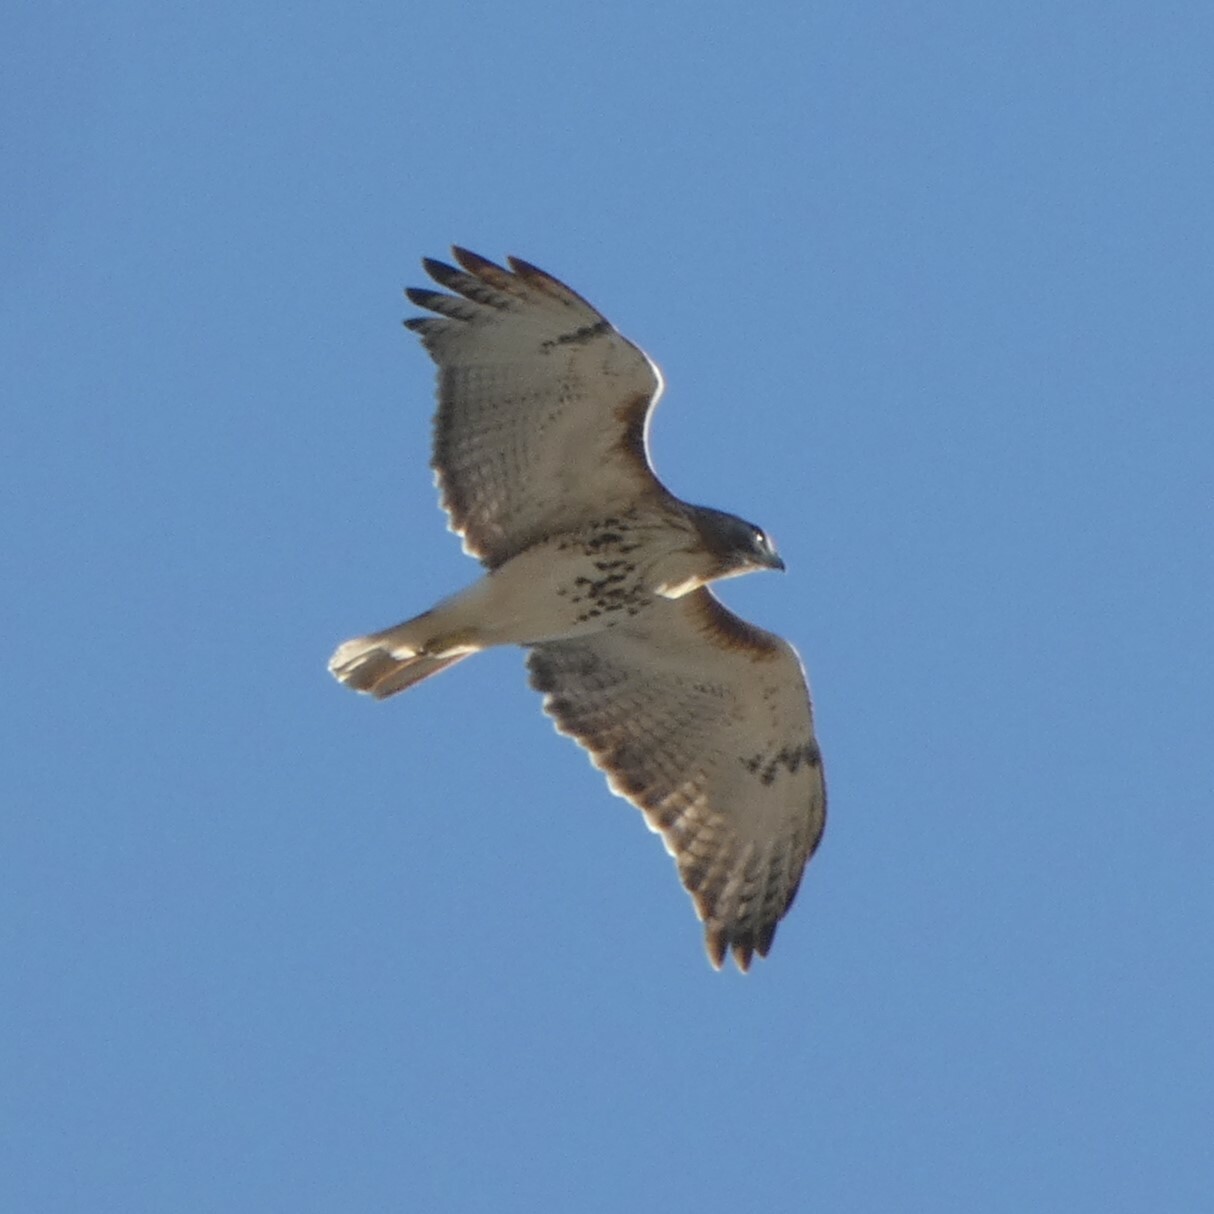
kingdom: Animalia
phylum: Chordata
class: Aves
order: Accipitriformes
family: Accipitridae
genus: Buteo
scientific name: Buteo jamaicensis
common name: Red-tailed hawk
